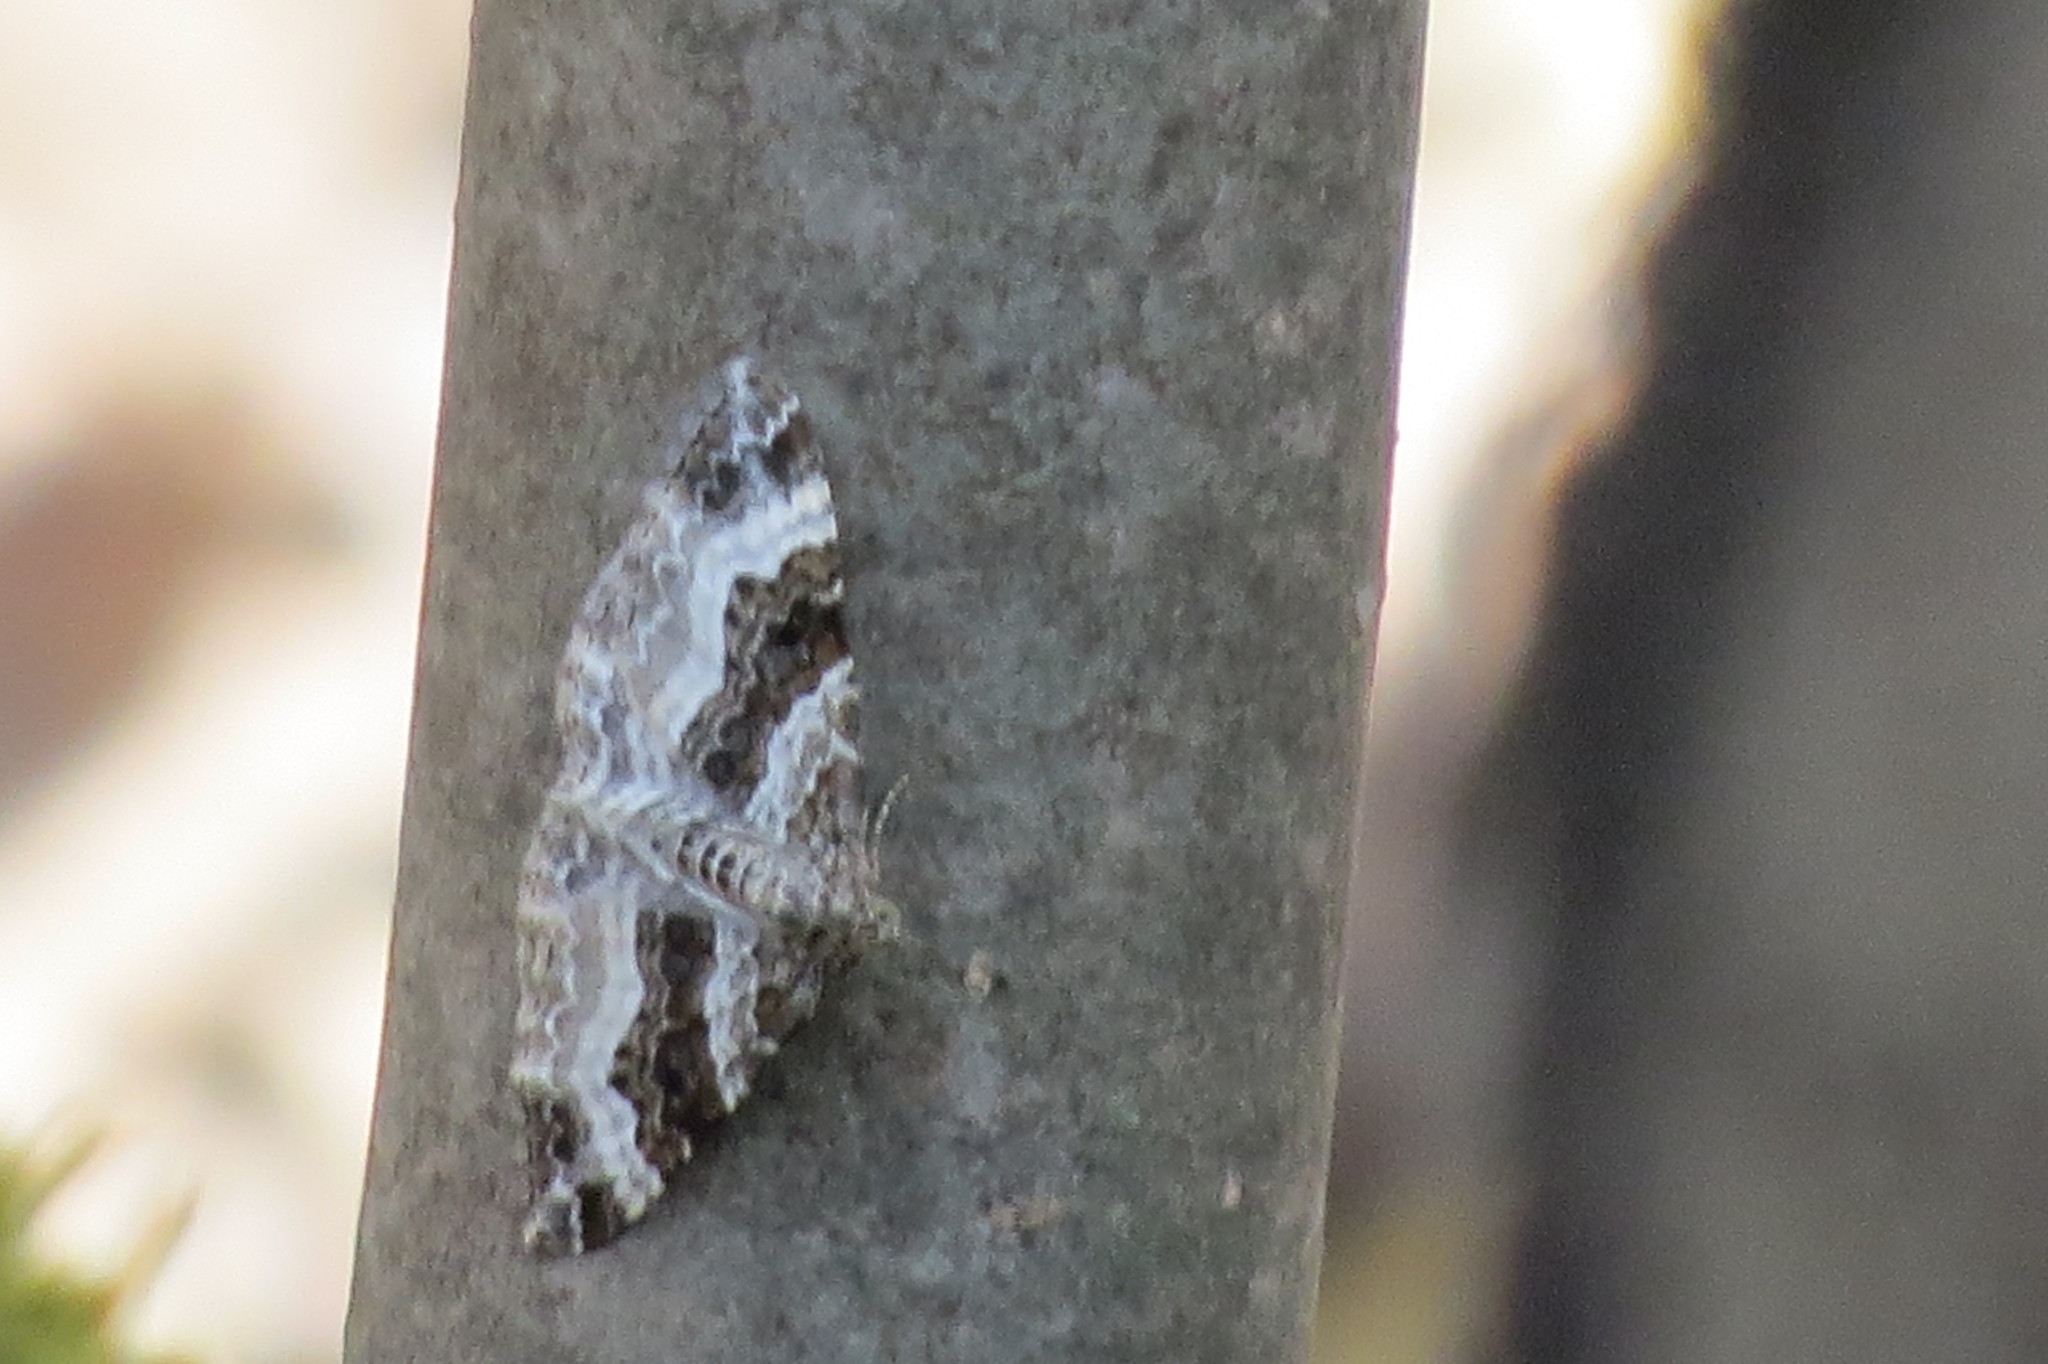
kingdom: Animalia
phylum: Arthropoda
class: Insecta
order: Lepidoptera
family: Geometridae
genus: Epirrhoe
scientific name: Epirrhoe alternata
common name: Common carpet
